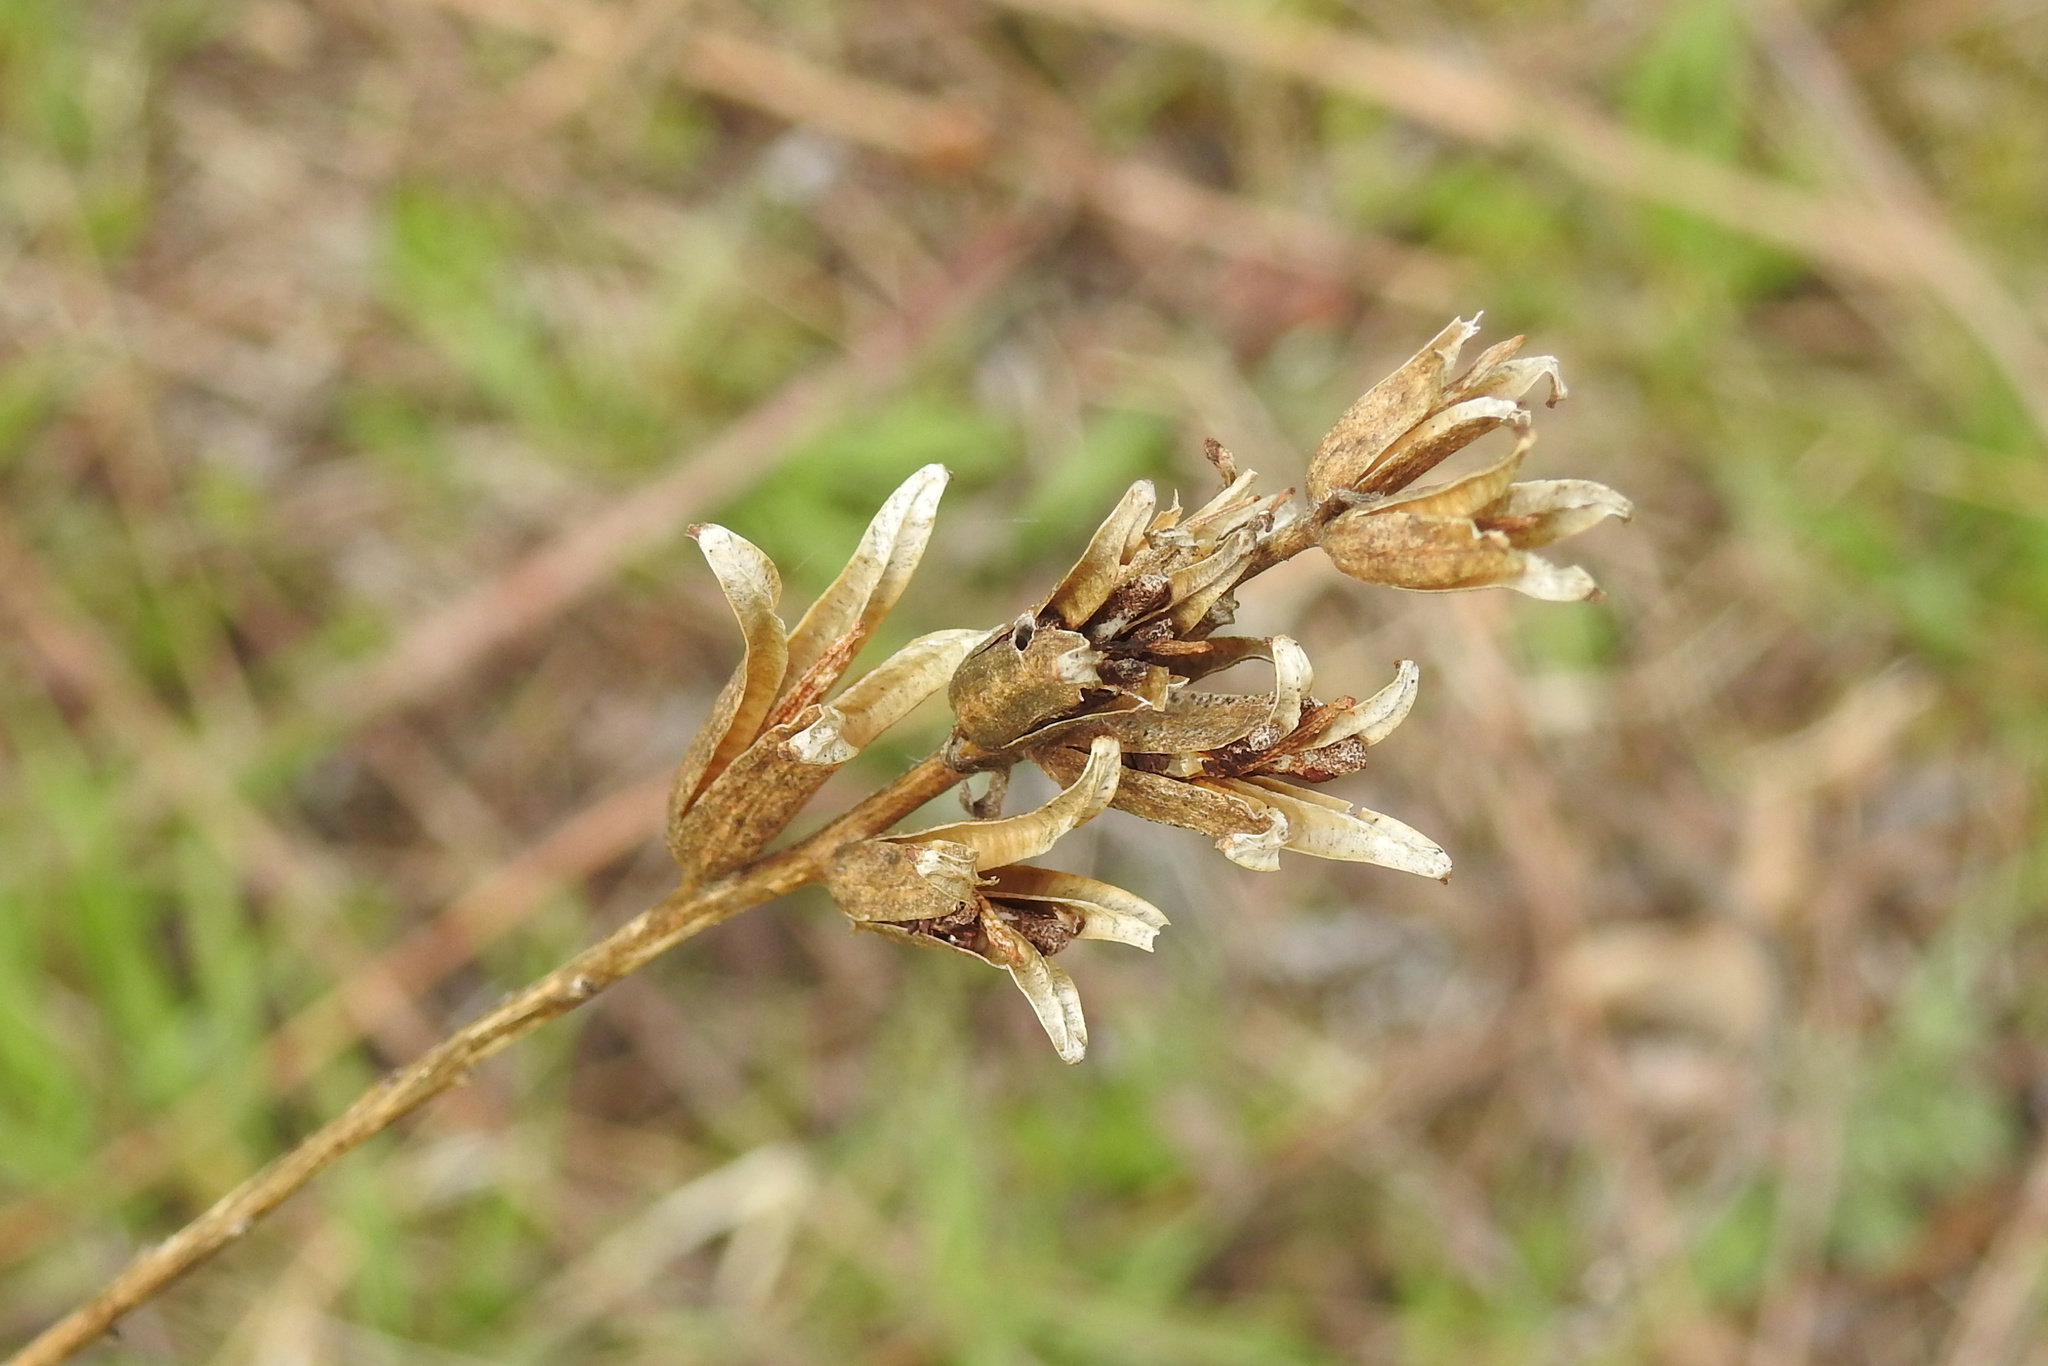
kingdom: Plantae
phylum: Tracheophyta
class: Magnoliopsida
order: Myrtales
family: Onagraceae
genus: Oenothera
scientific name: Oenothera biennis
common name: Common evening-primrose
